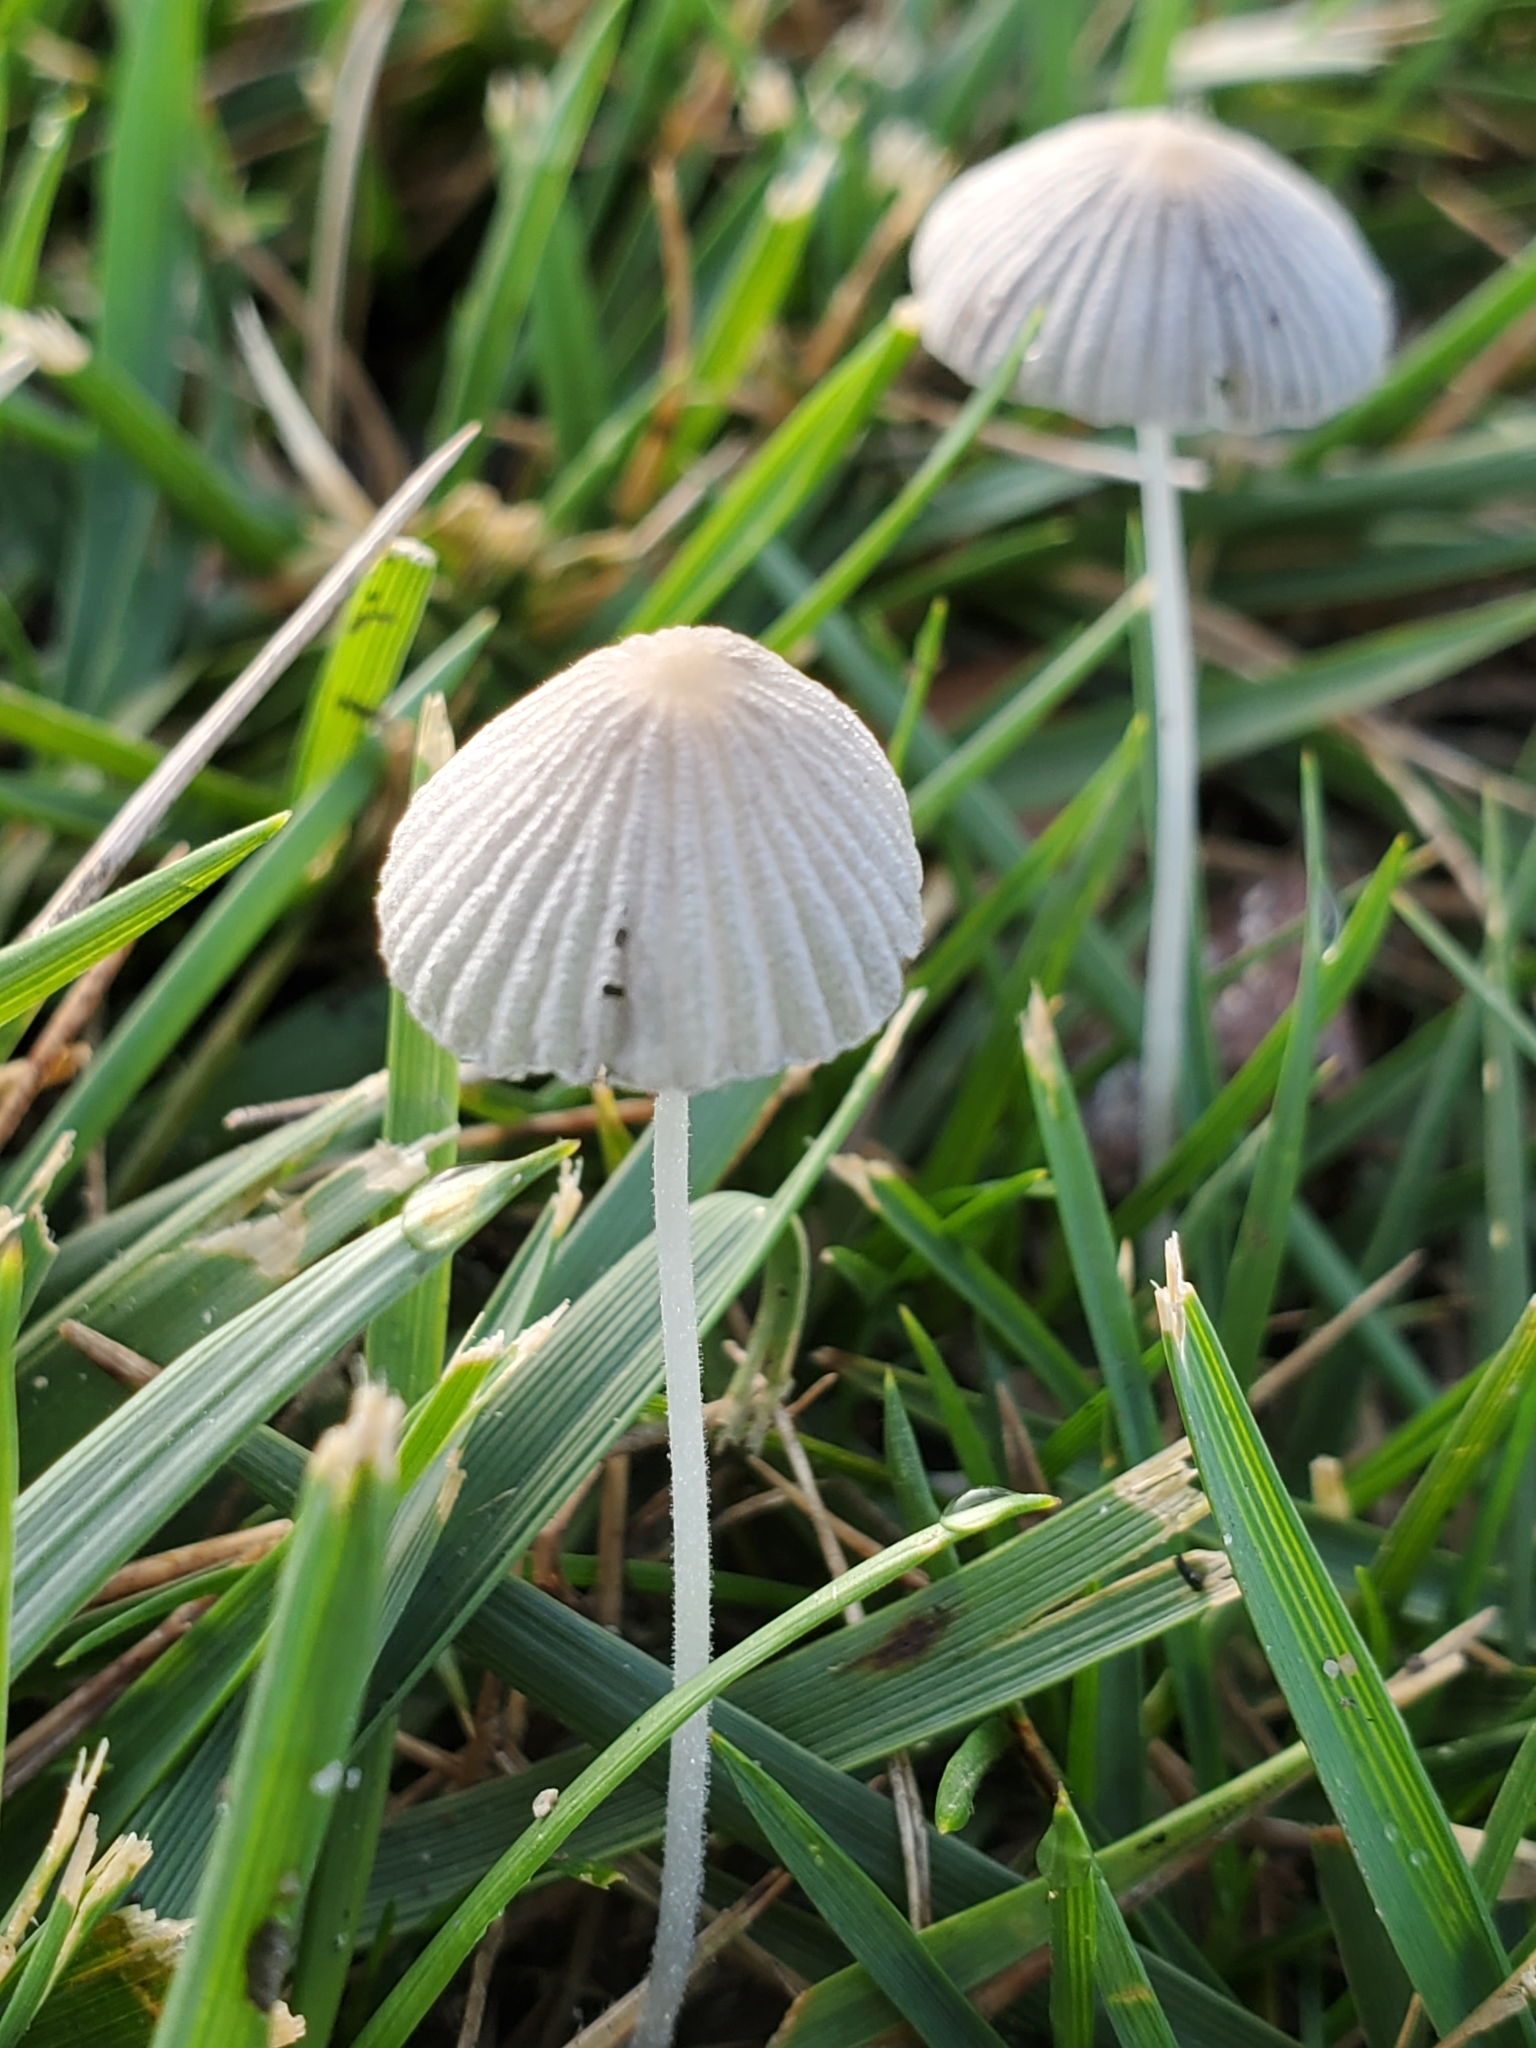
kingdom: Fungi
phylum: Basidiomycota
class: Agaricomycetes
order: Agaricales
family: Psathyrellaceae
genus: Parasola
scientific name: Parasola plicatilis
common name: Pleated inkcap
